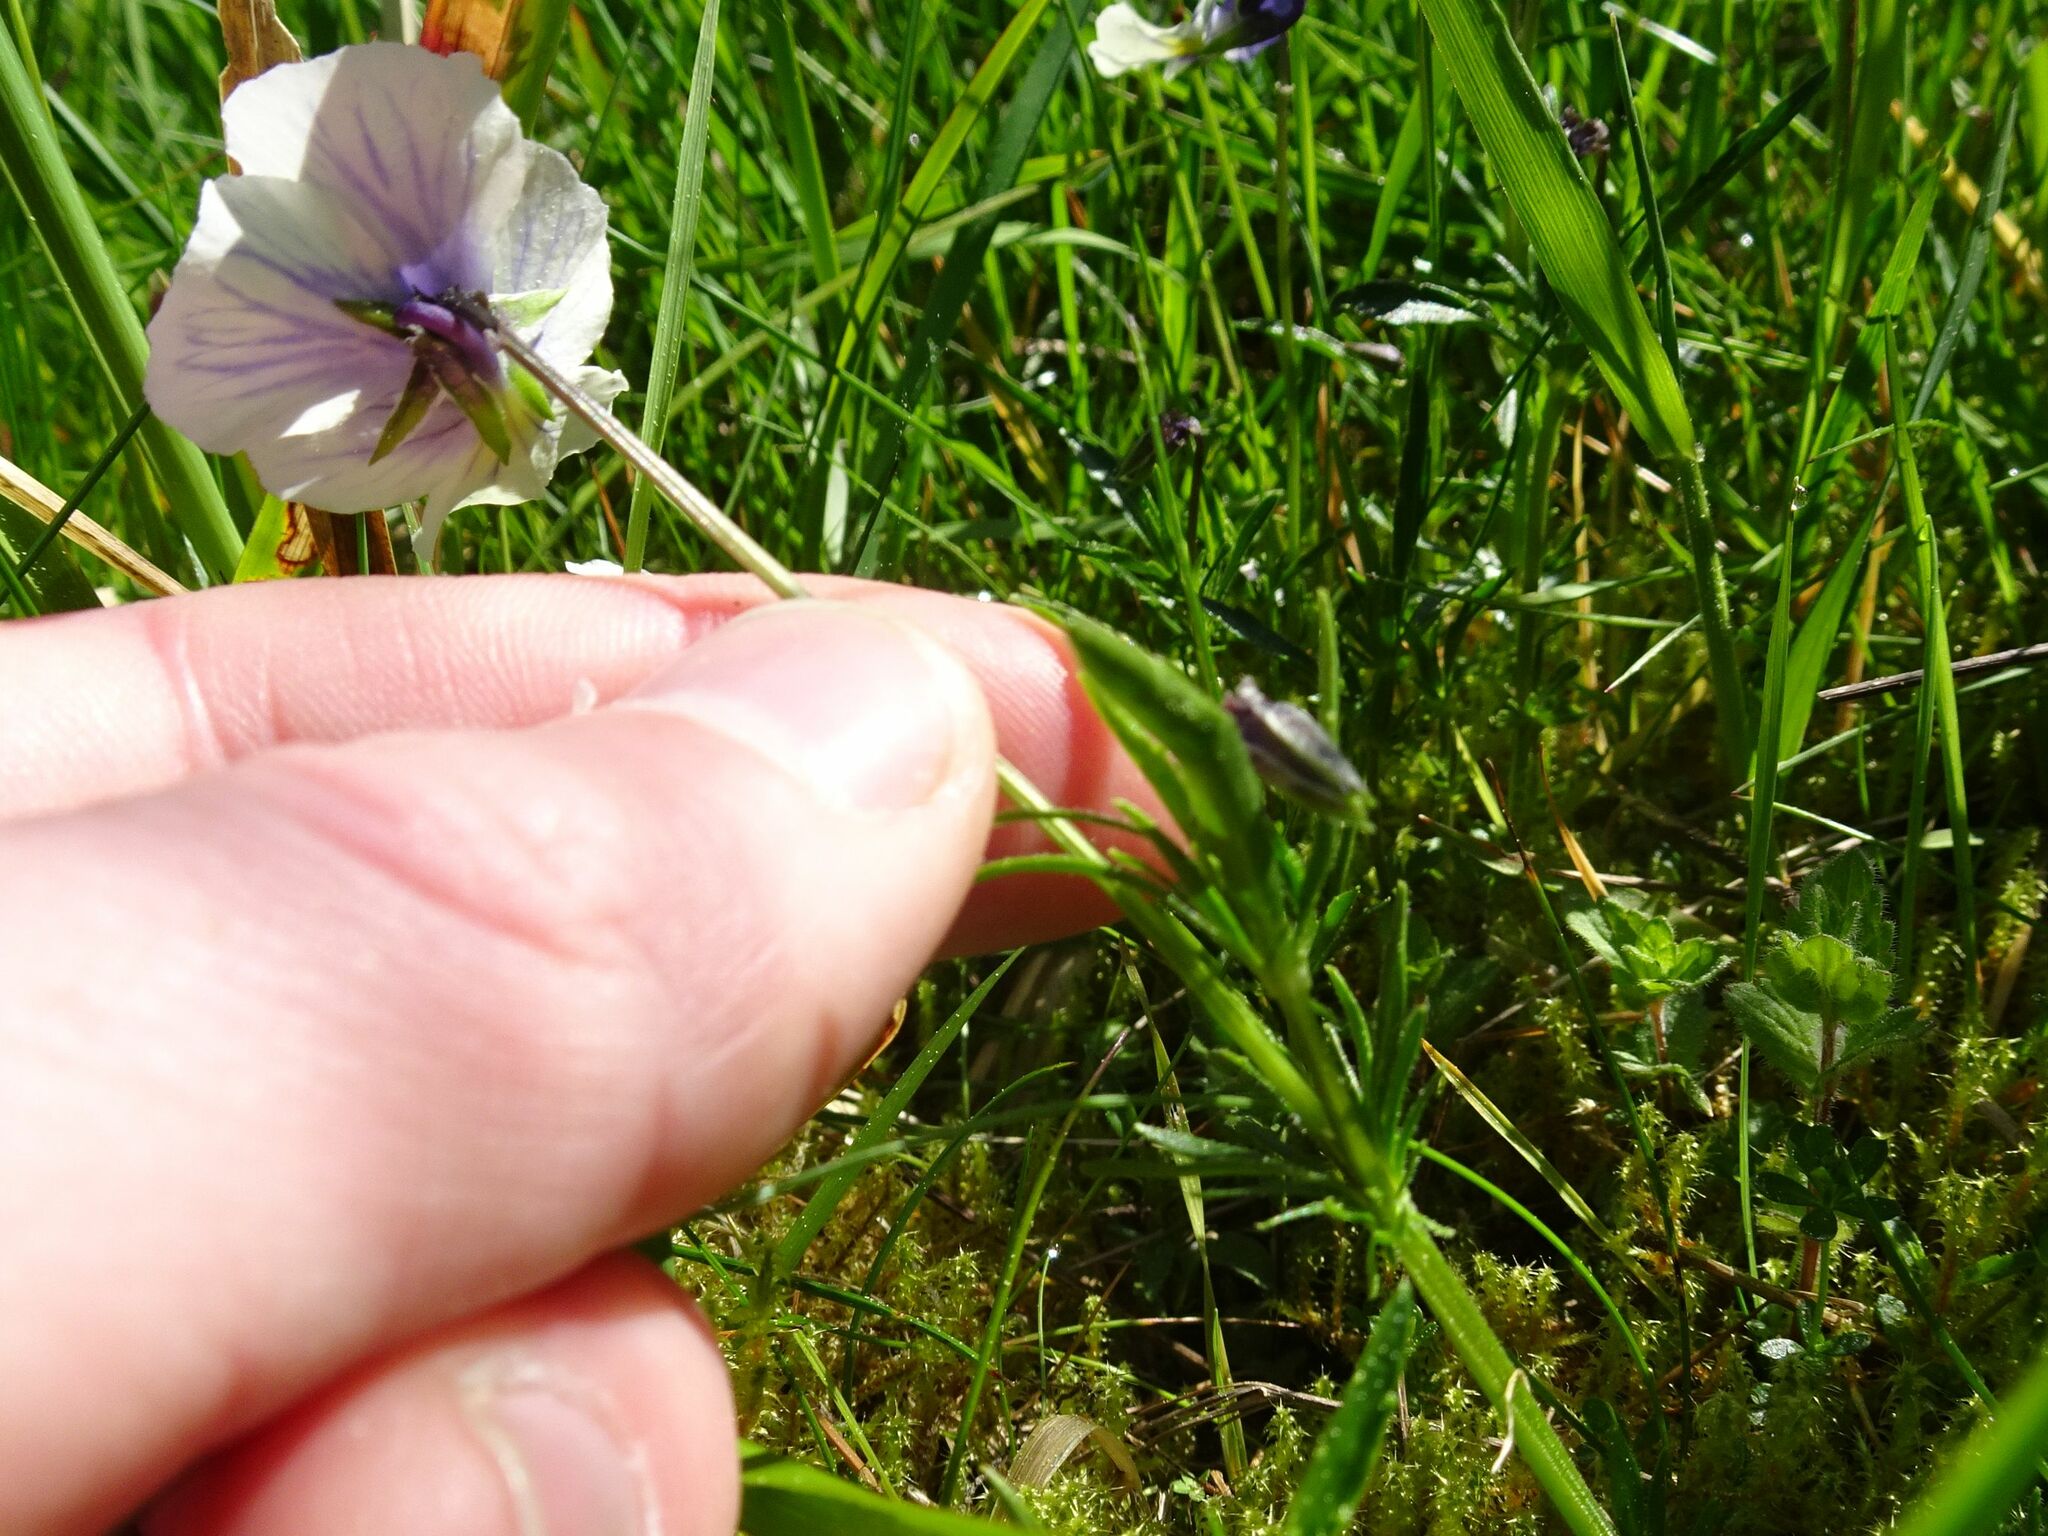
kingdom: Plantae
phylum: Tracheophyta
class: Magnoliopsida
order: Malpighiales
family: Violaceae
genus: Viola
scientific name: Viola lutea
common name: Mountain pansy
